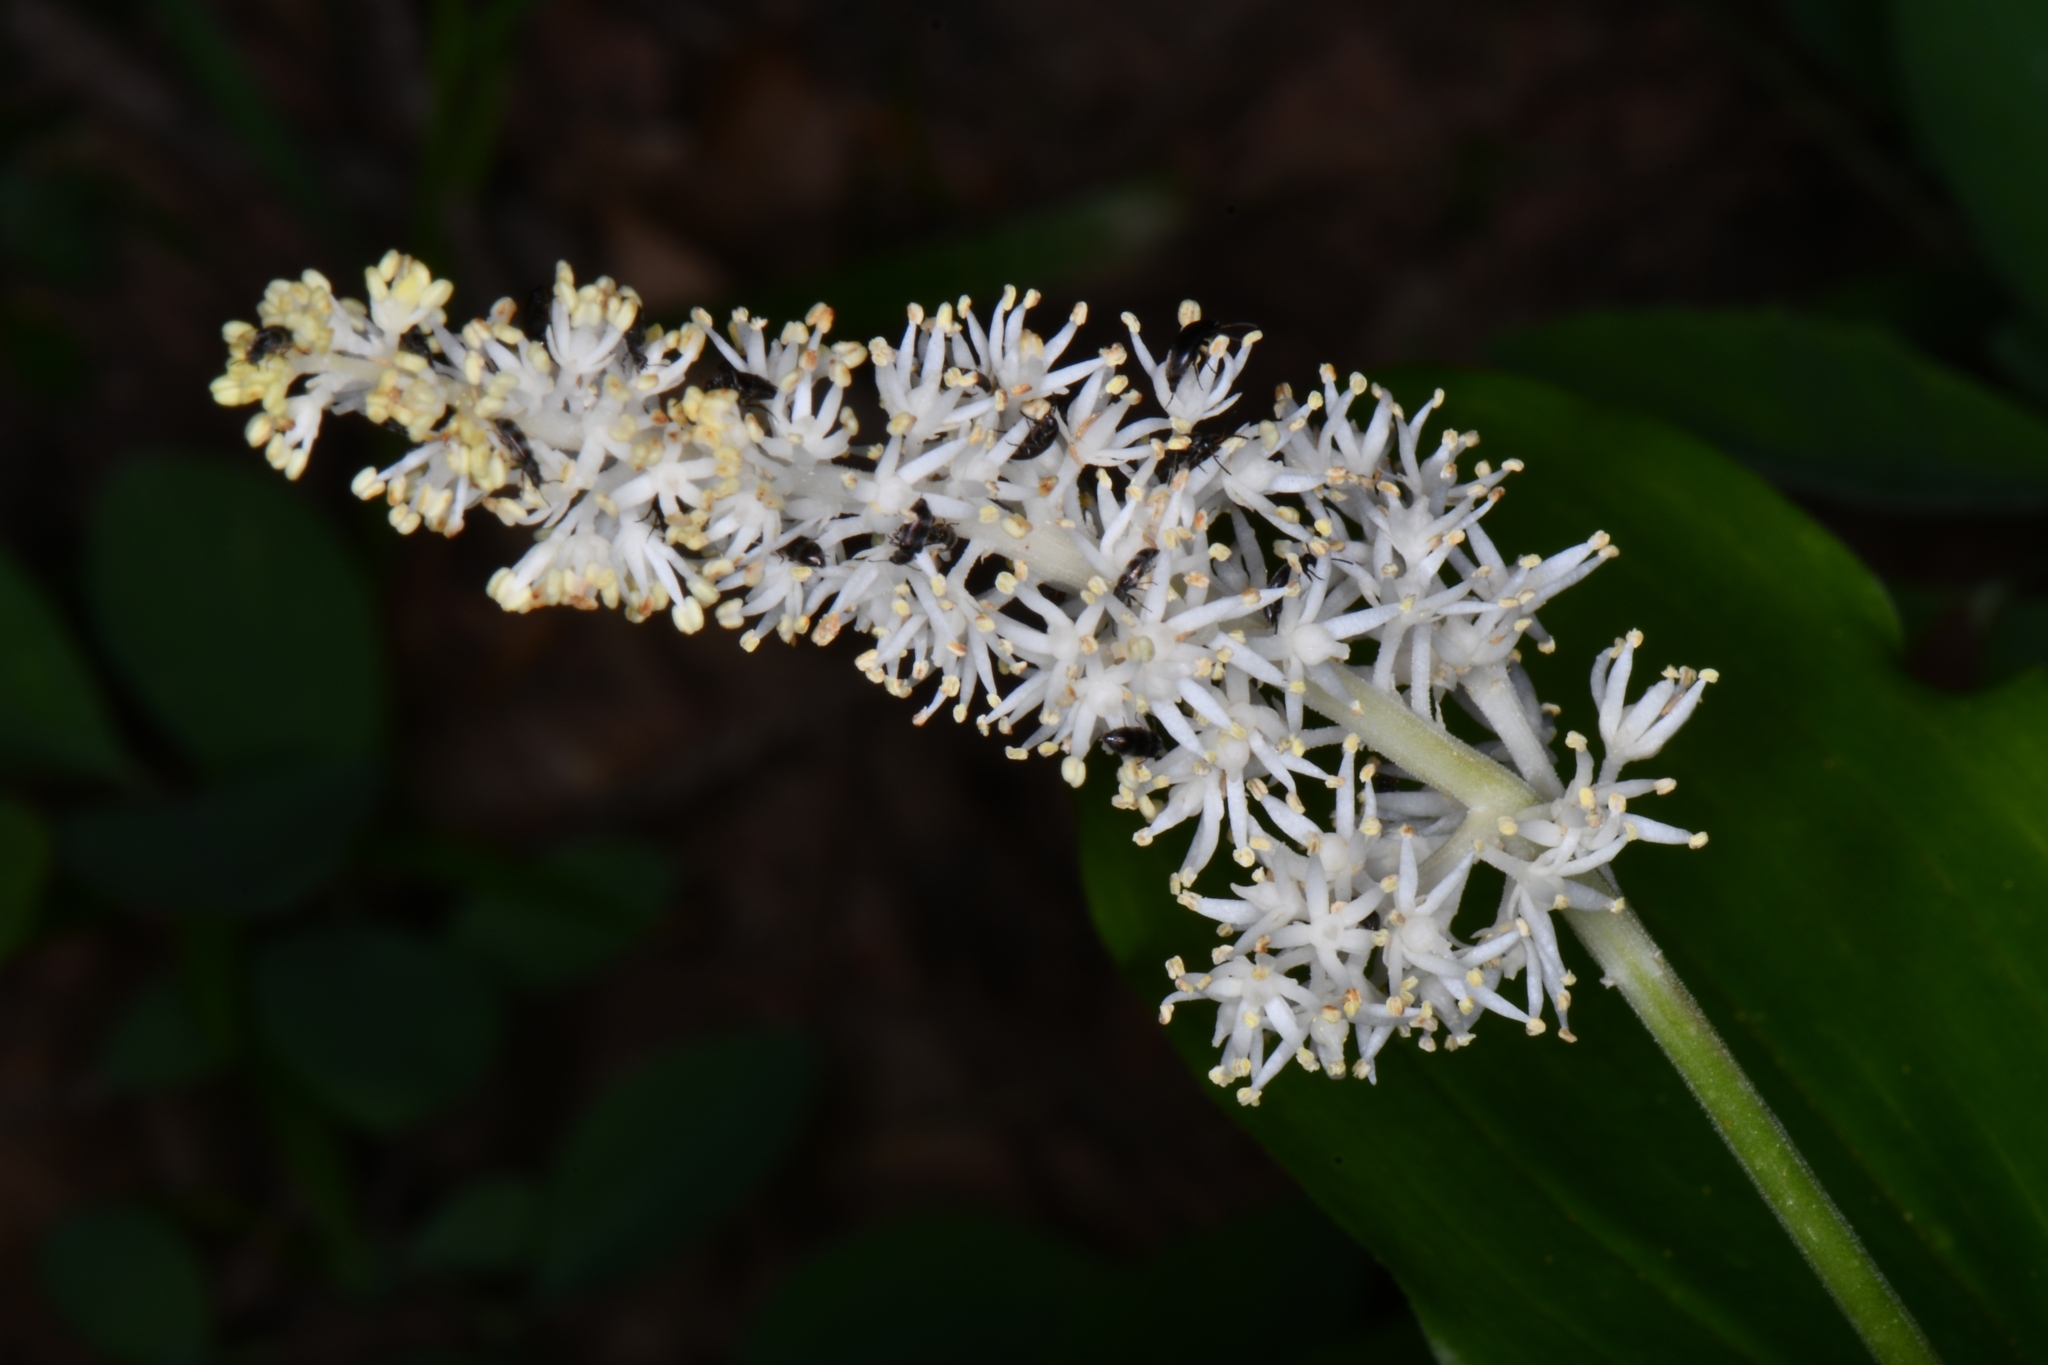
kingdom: Plantae
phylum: Tracheophyta
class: Liliopsida
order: Asparagales
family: Asparagaceae
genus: Maianthemum
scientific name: Maianthemum racemosum
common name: False spikenard
